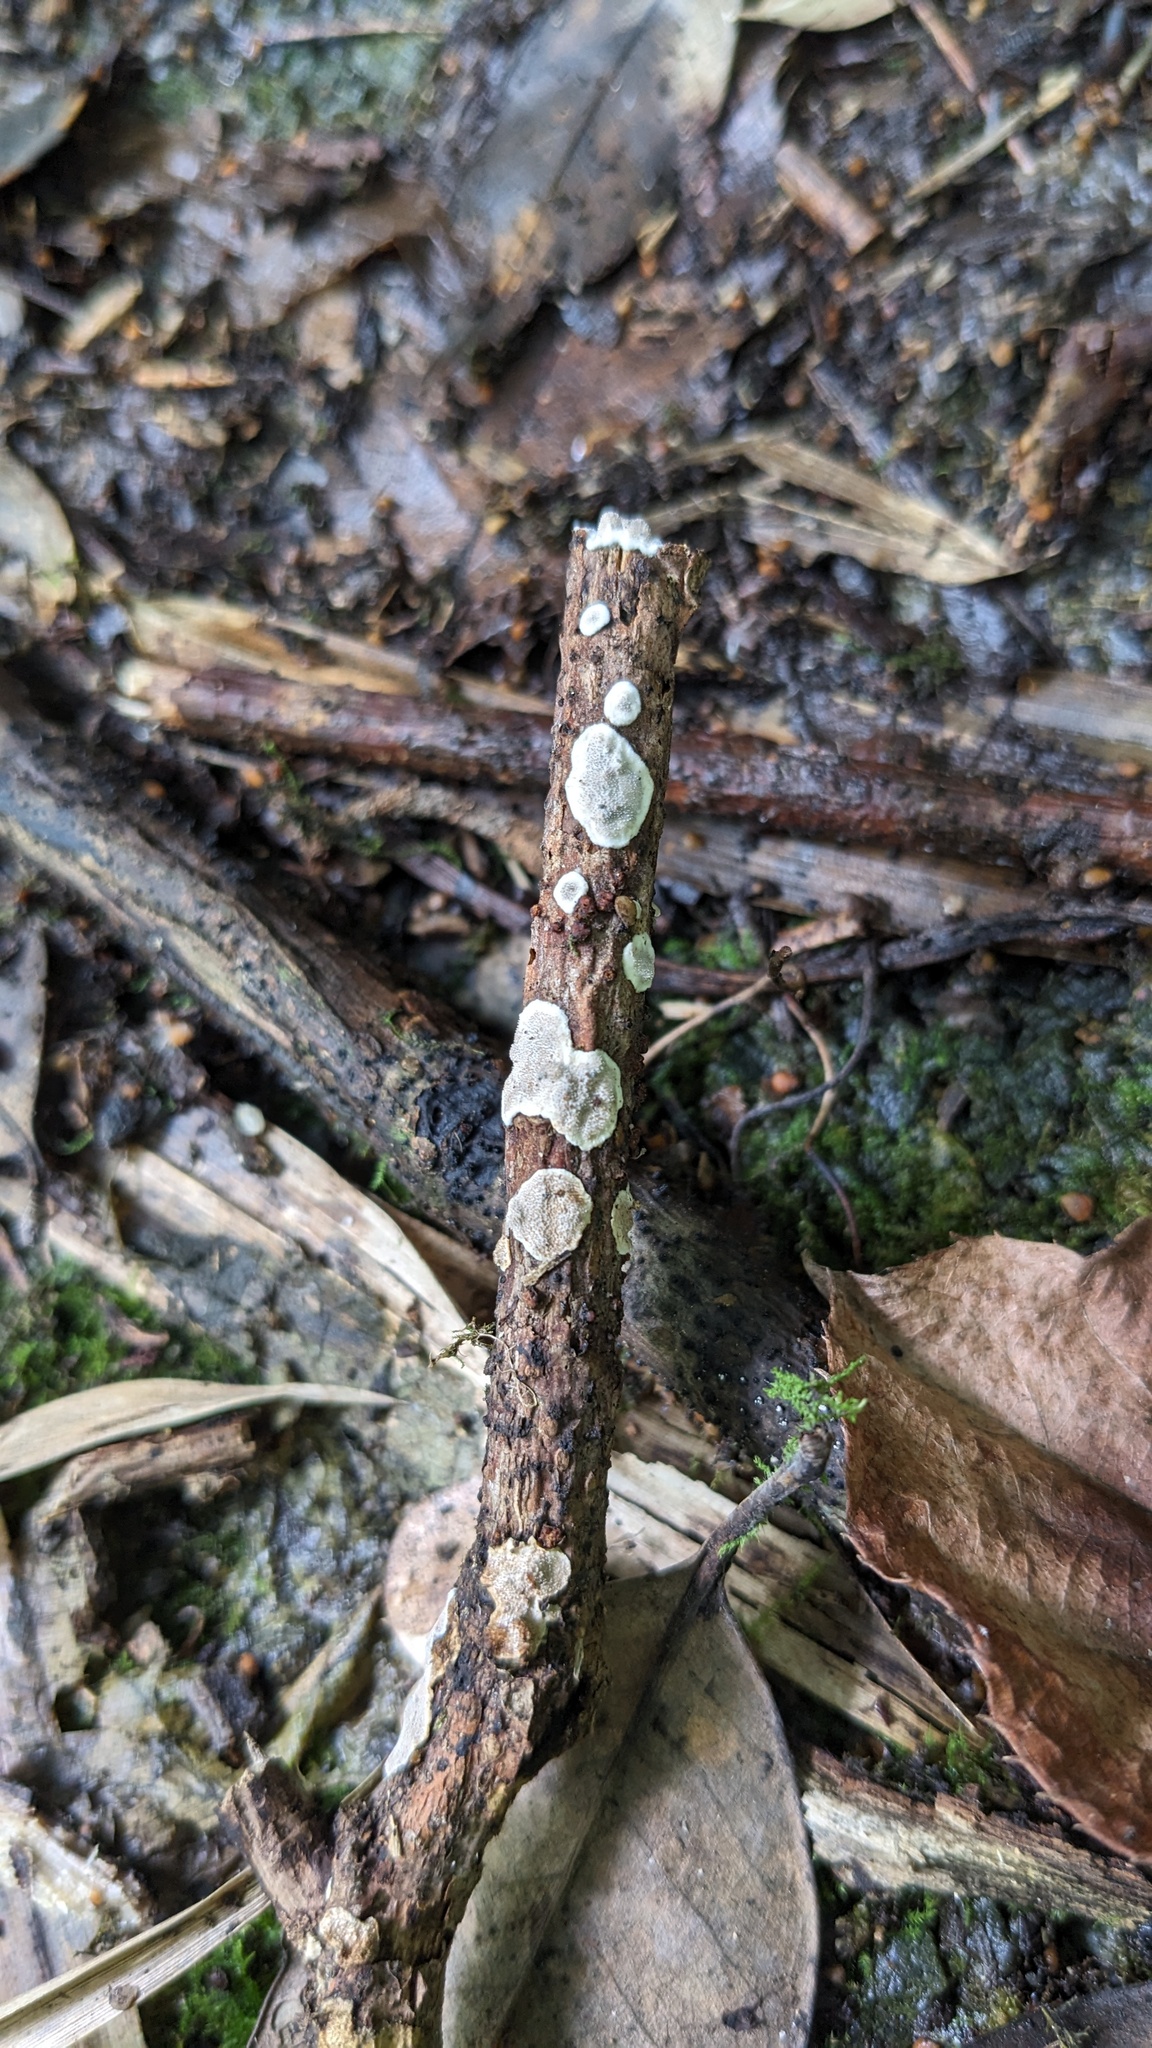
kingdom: Fungi
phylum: Basidiomycota
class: Agaricomycetes
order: Auriculariales
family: Auriculariaceae
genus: Heterochaete
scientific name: Heterochaete delicata
